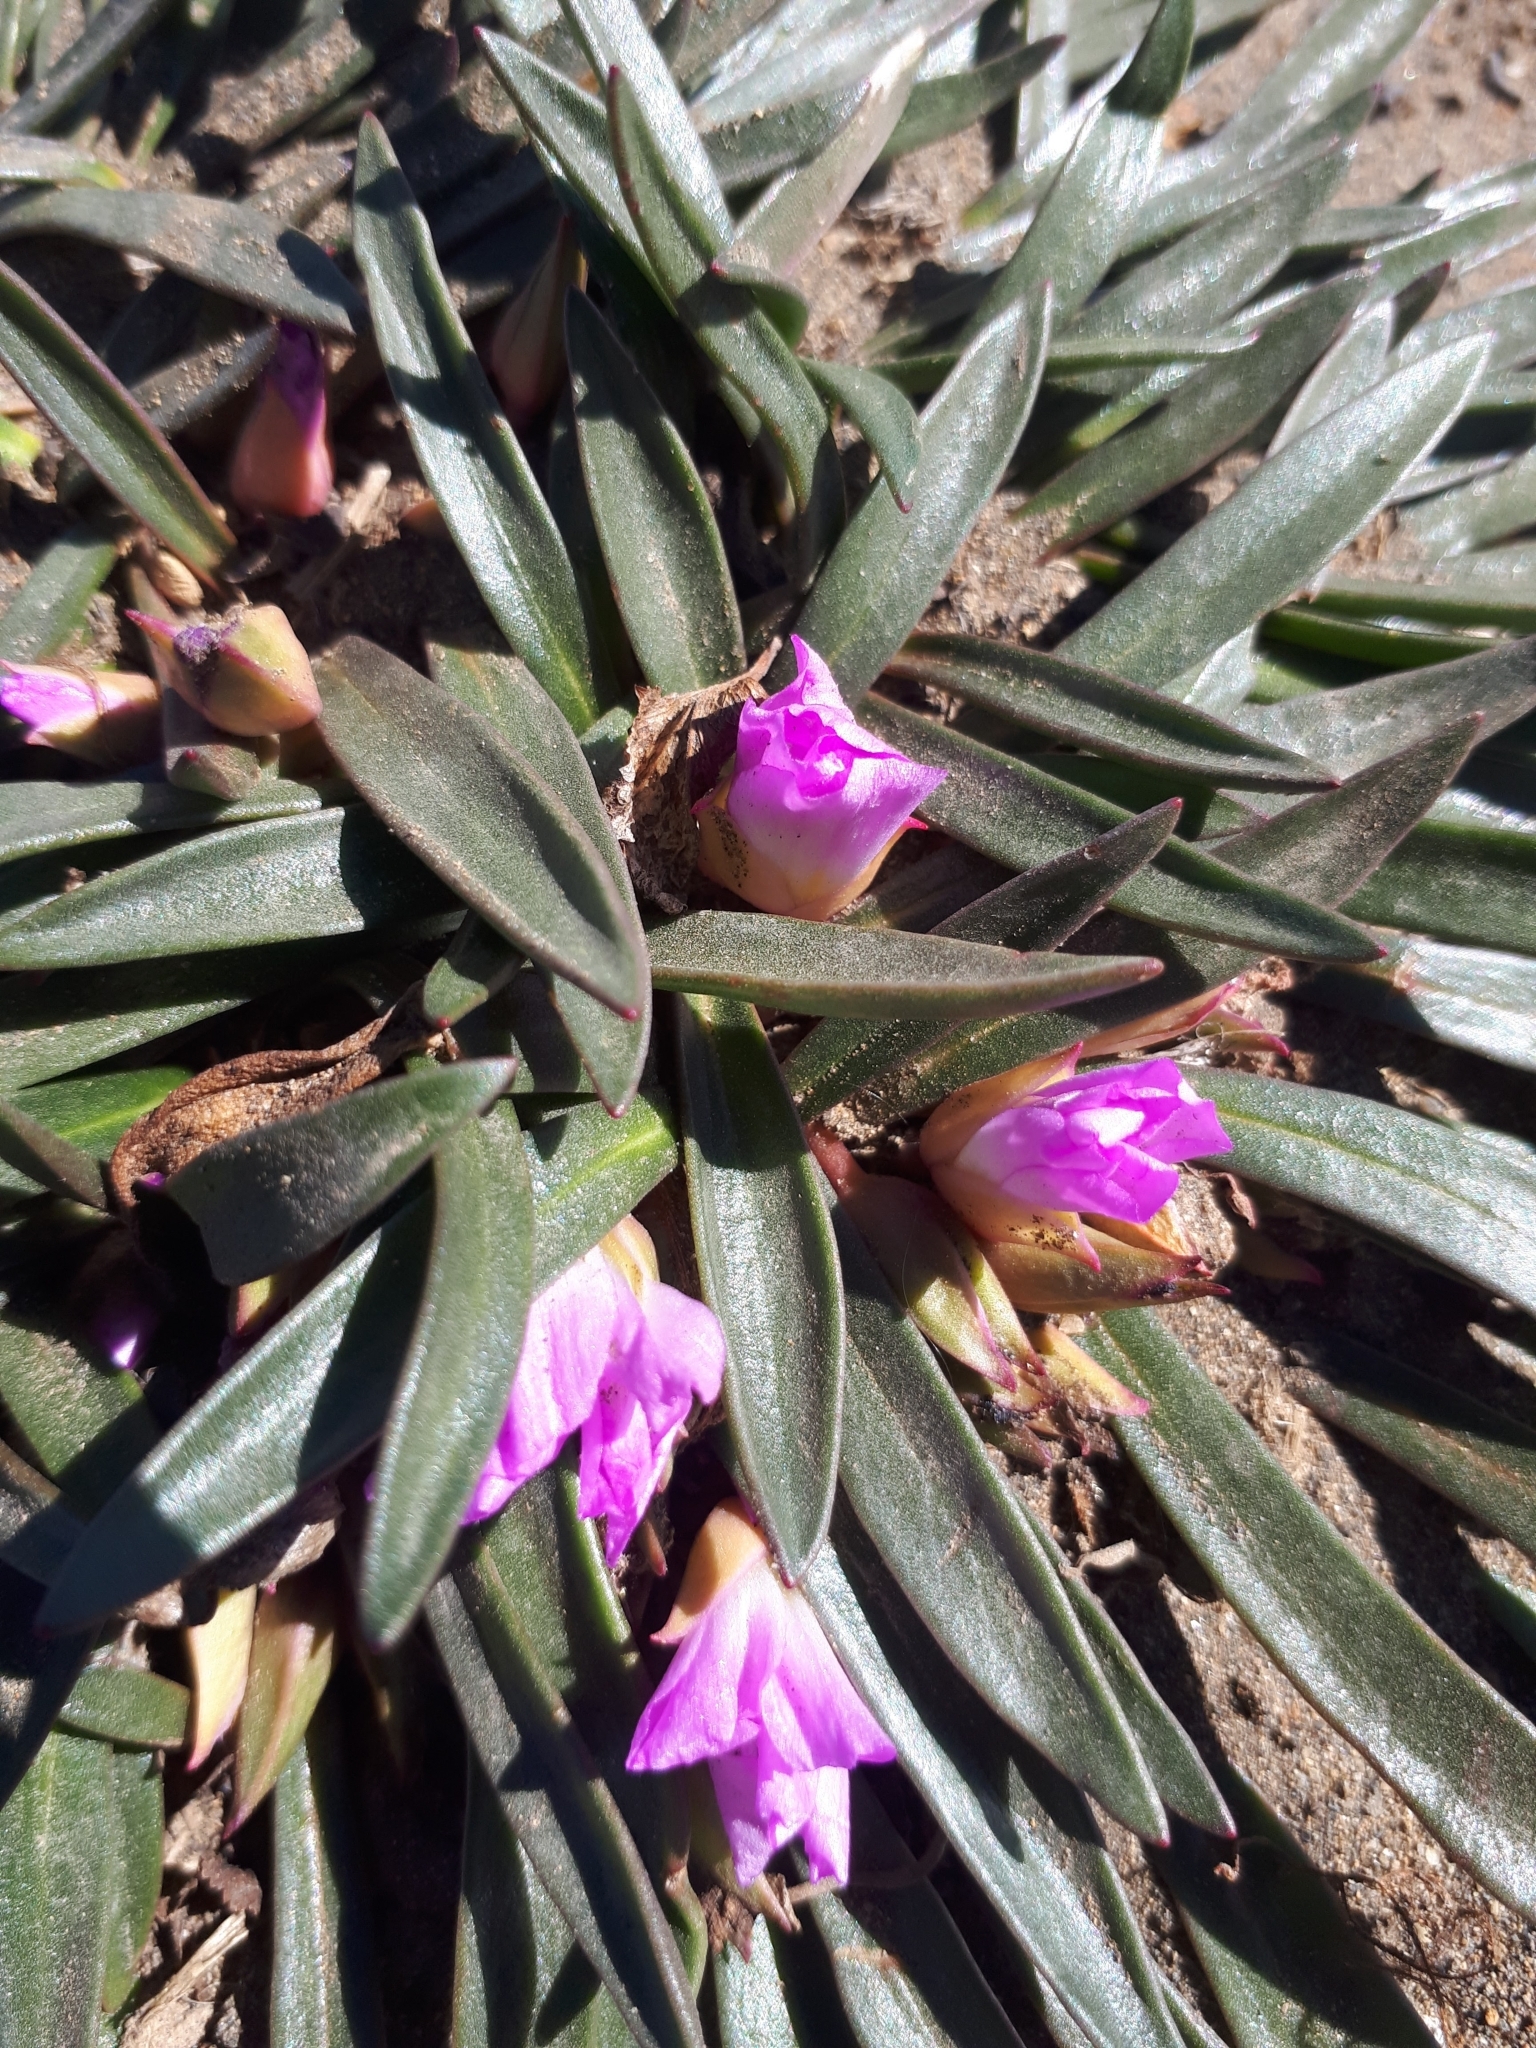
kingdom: Plantae
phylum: Tracheophyta
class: Magnoliopsida
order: Caryophyllales
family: Montiaceae
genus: Calandrinia
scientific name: Calandrinia colchaguensis
